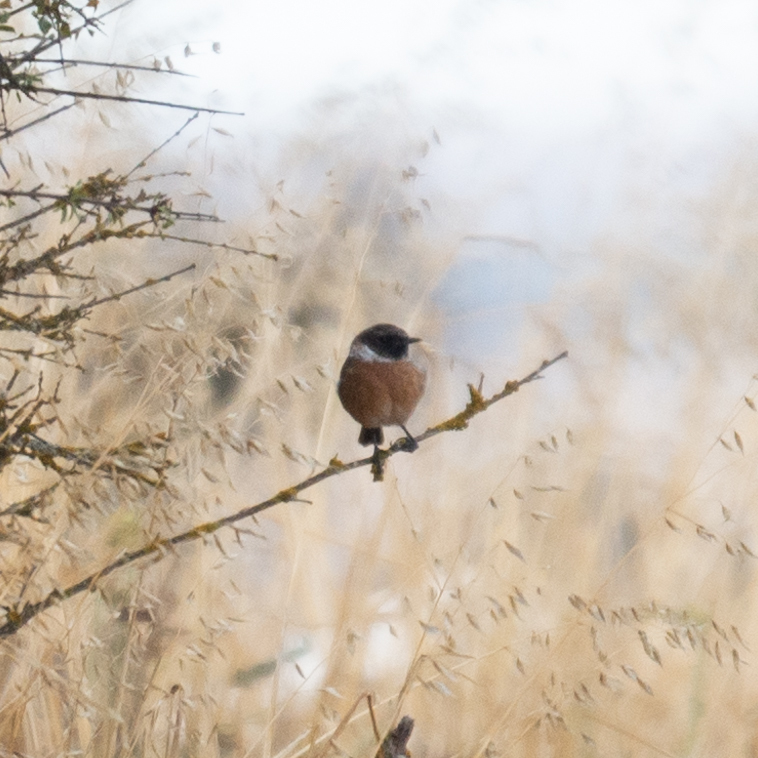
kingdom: Animalia
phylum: Chordata
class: Aves
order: Passeriformes
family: Muscicapidae
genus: Saxicola
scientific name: Saxicola rubicola
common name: European stonechat
